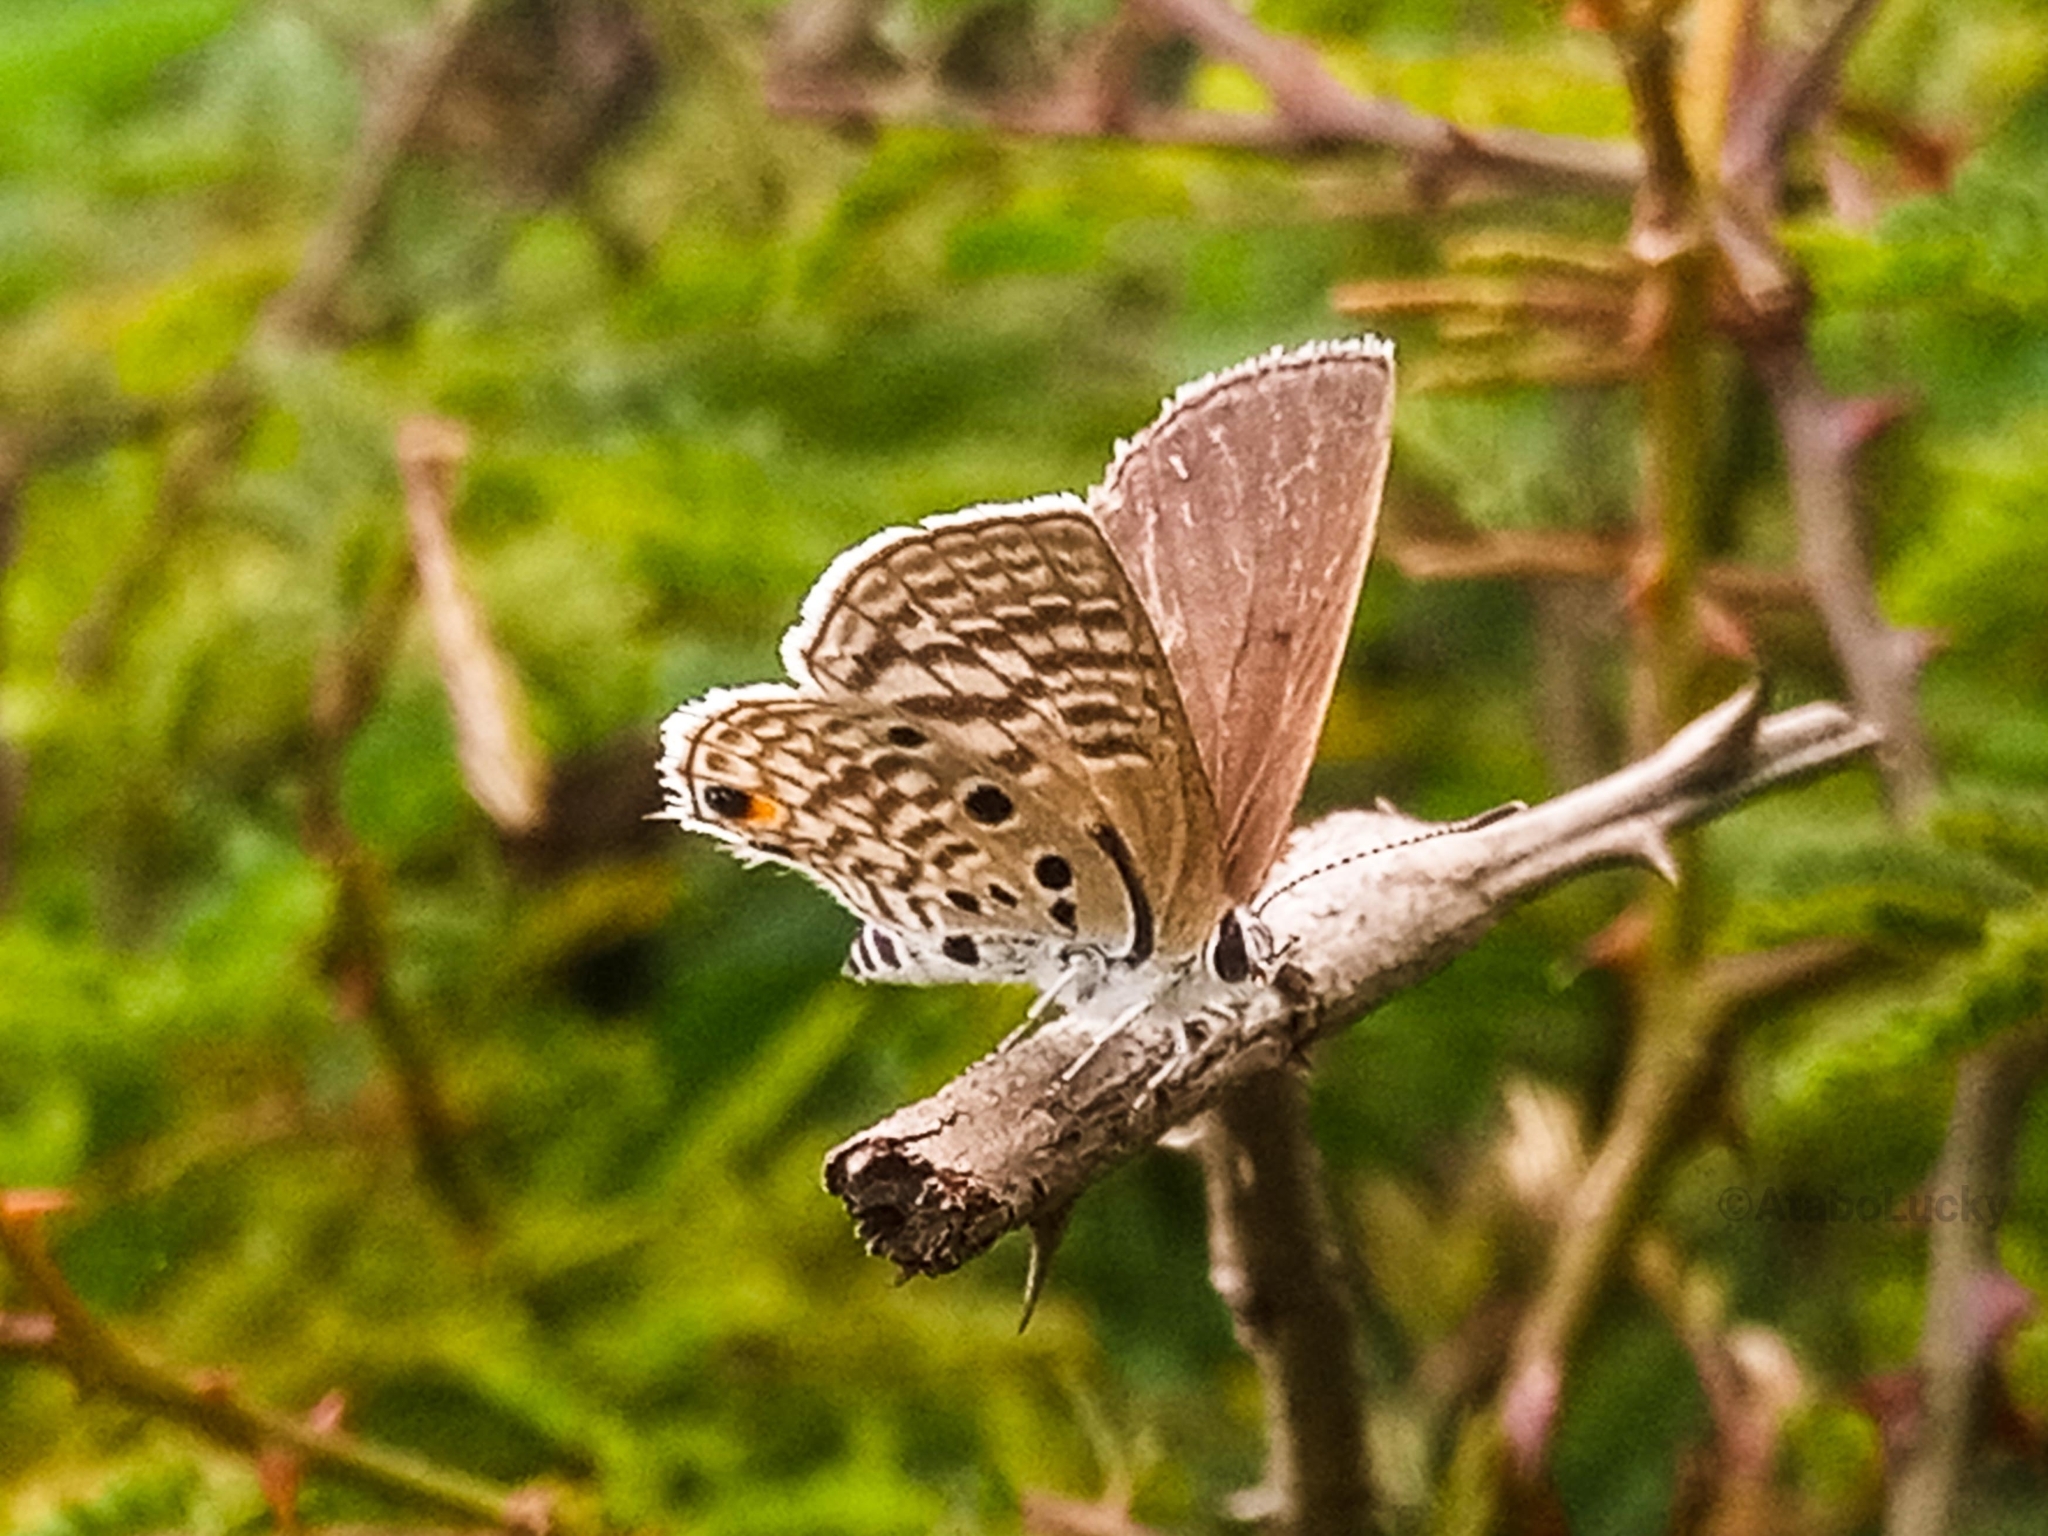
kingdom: Animalia
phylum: Arthropoda
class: Insecta
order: Lepidoptera
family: Lycaenidae
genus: Anthene
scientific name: Anthene amarah
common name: Black-striped hairtail
